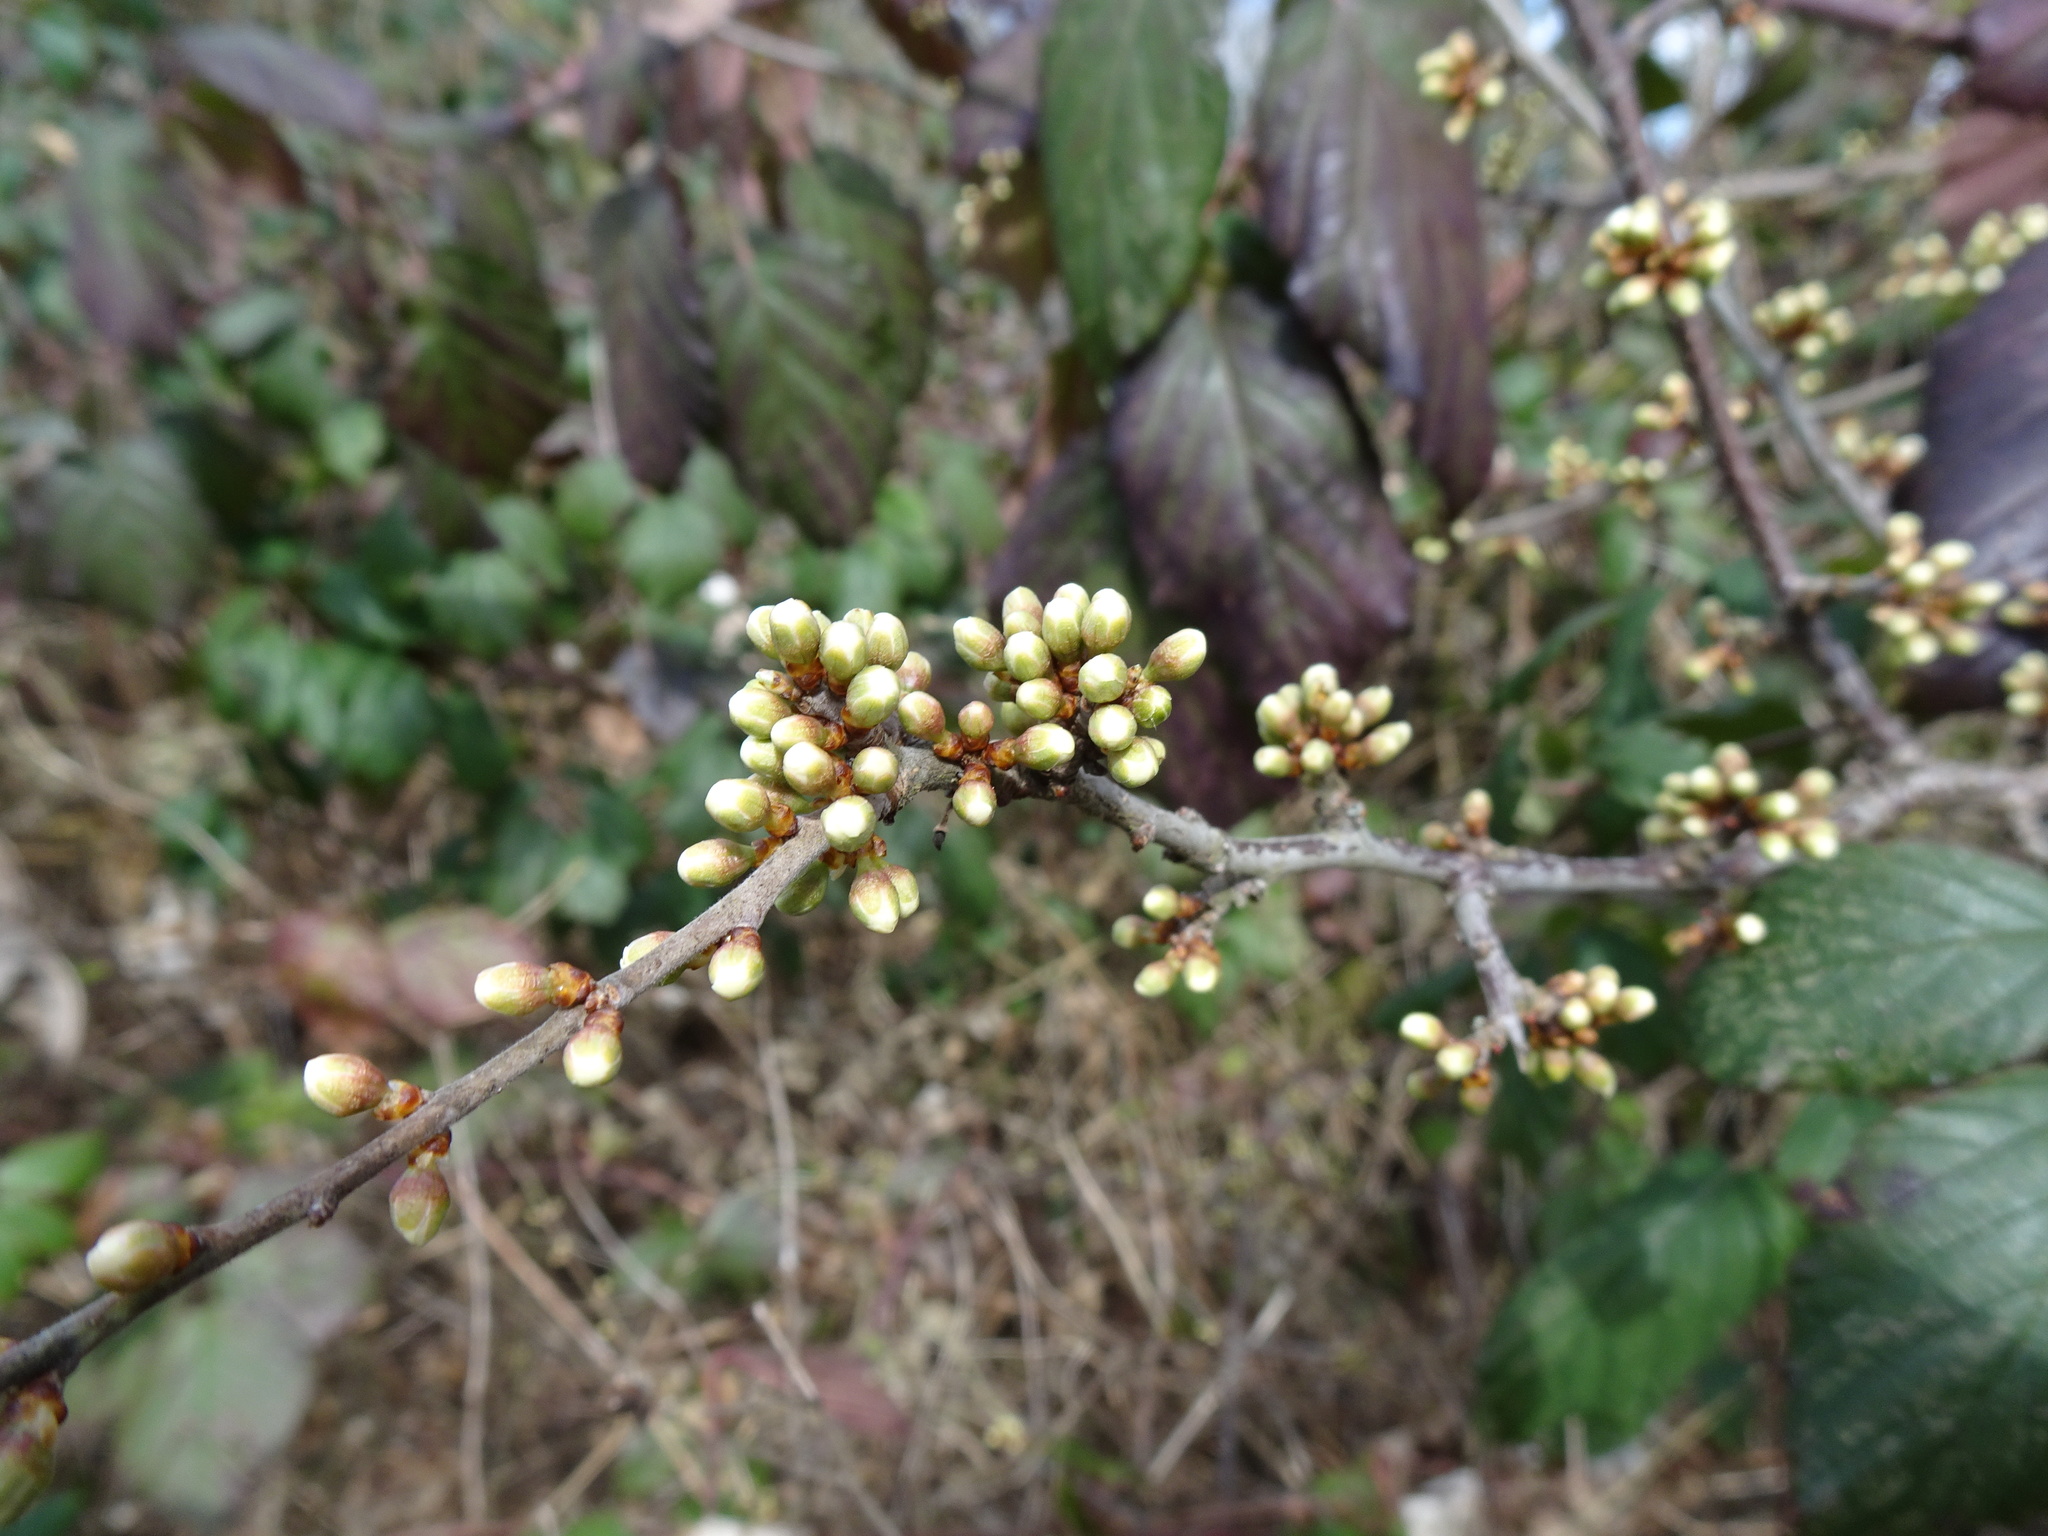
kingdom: Plantae
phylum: Tracheophyta
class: Magnoliopsida
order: Rosales
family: Rosaceae
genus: Prunus
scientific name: Prunus spinosa
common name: Blackthorn
